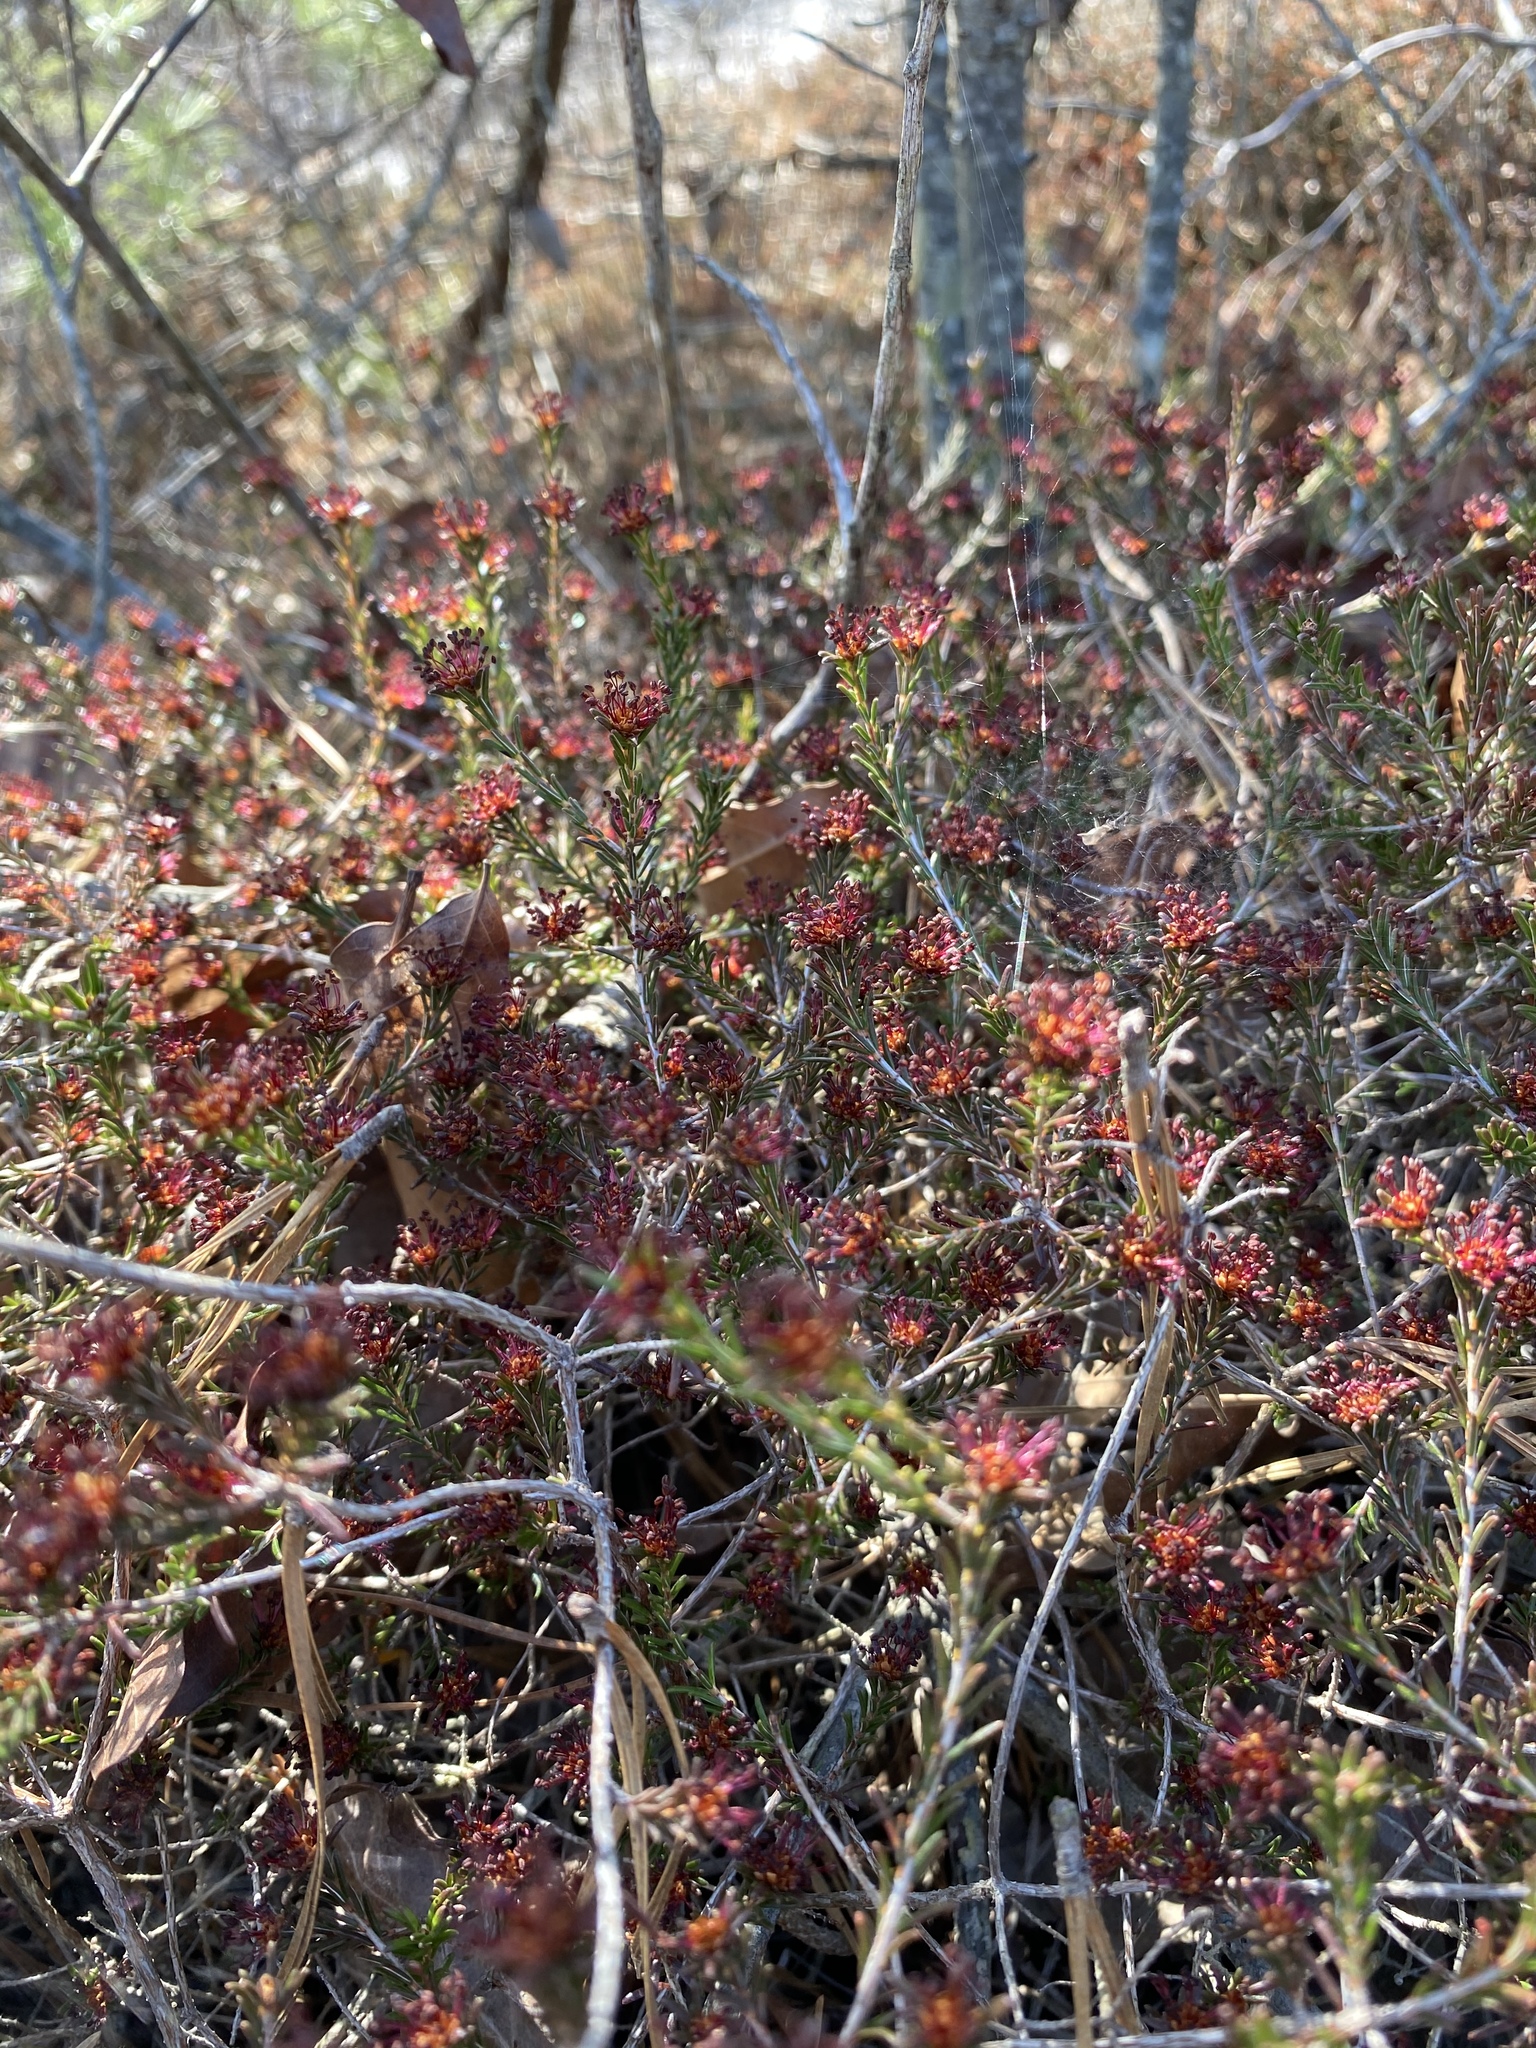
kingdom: Plantae
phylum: Tracheophyta
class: Magnoliopsida
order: Ericales
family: Ericaceae
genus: Corema
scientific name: Corema conradii
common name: Broom-crowberry
